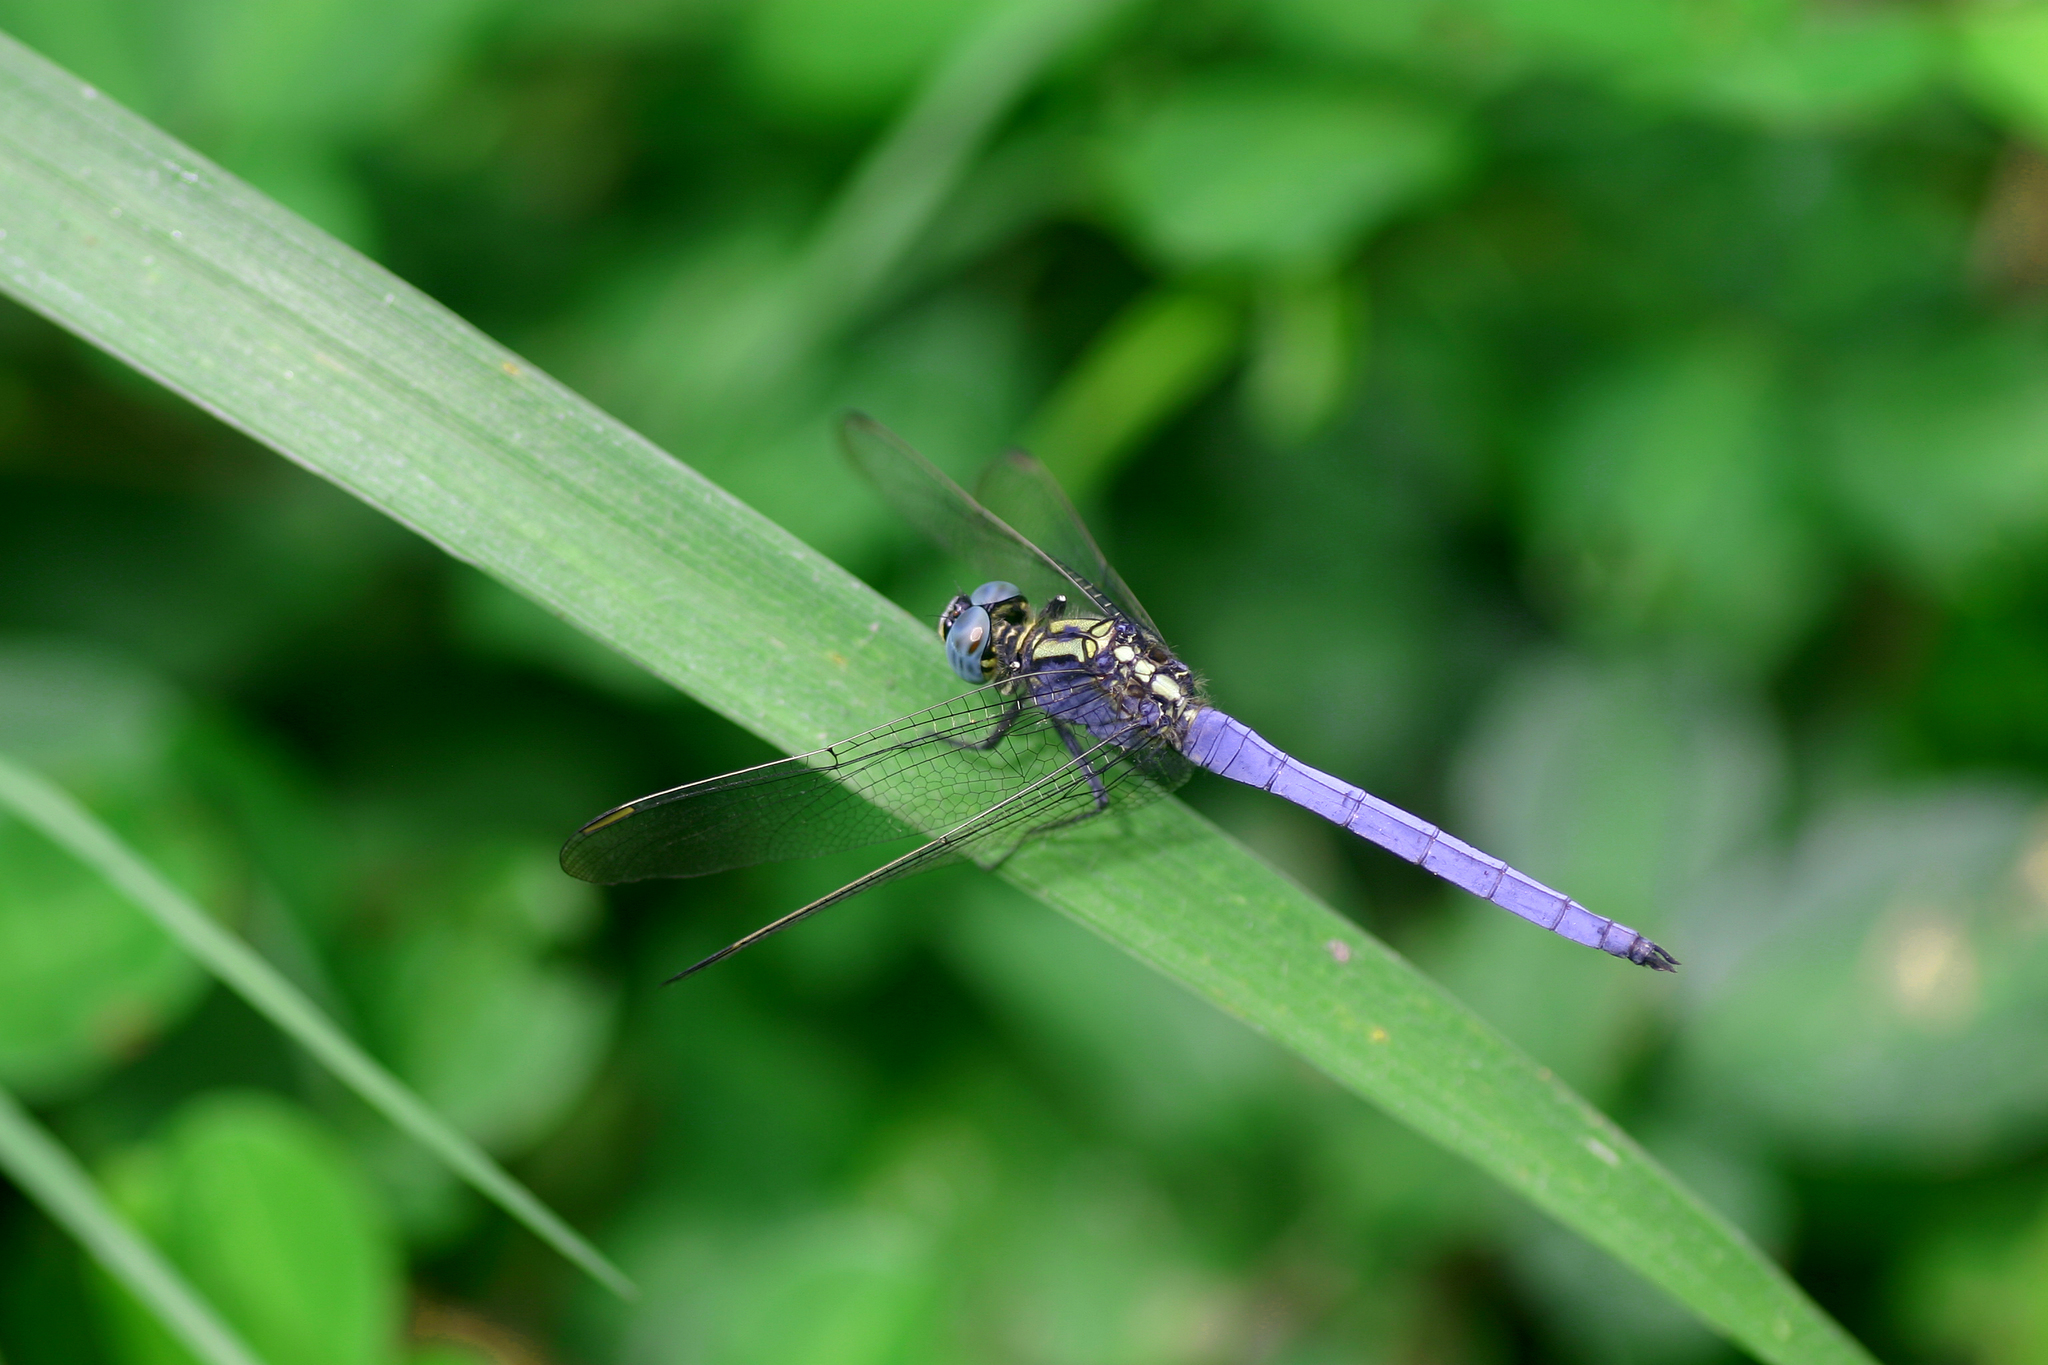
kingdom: Animalia
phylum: Arthropoda
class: Insecta
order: Odonata
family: Libellulidae
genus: Orthetrum
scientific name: Orthetrum luzonicum
